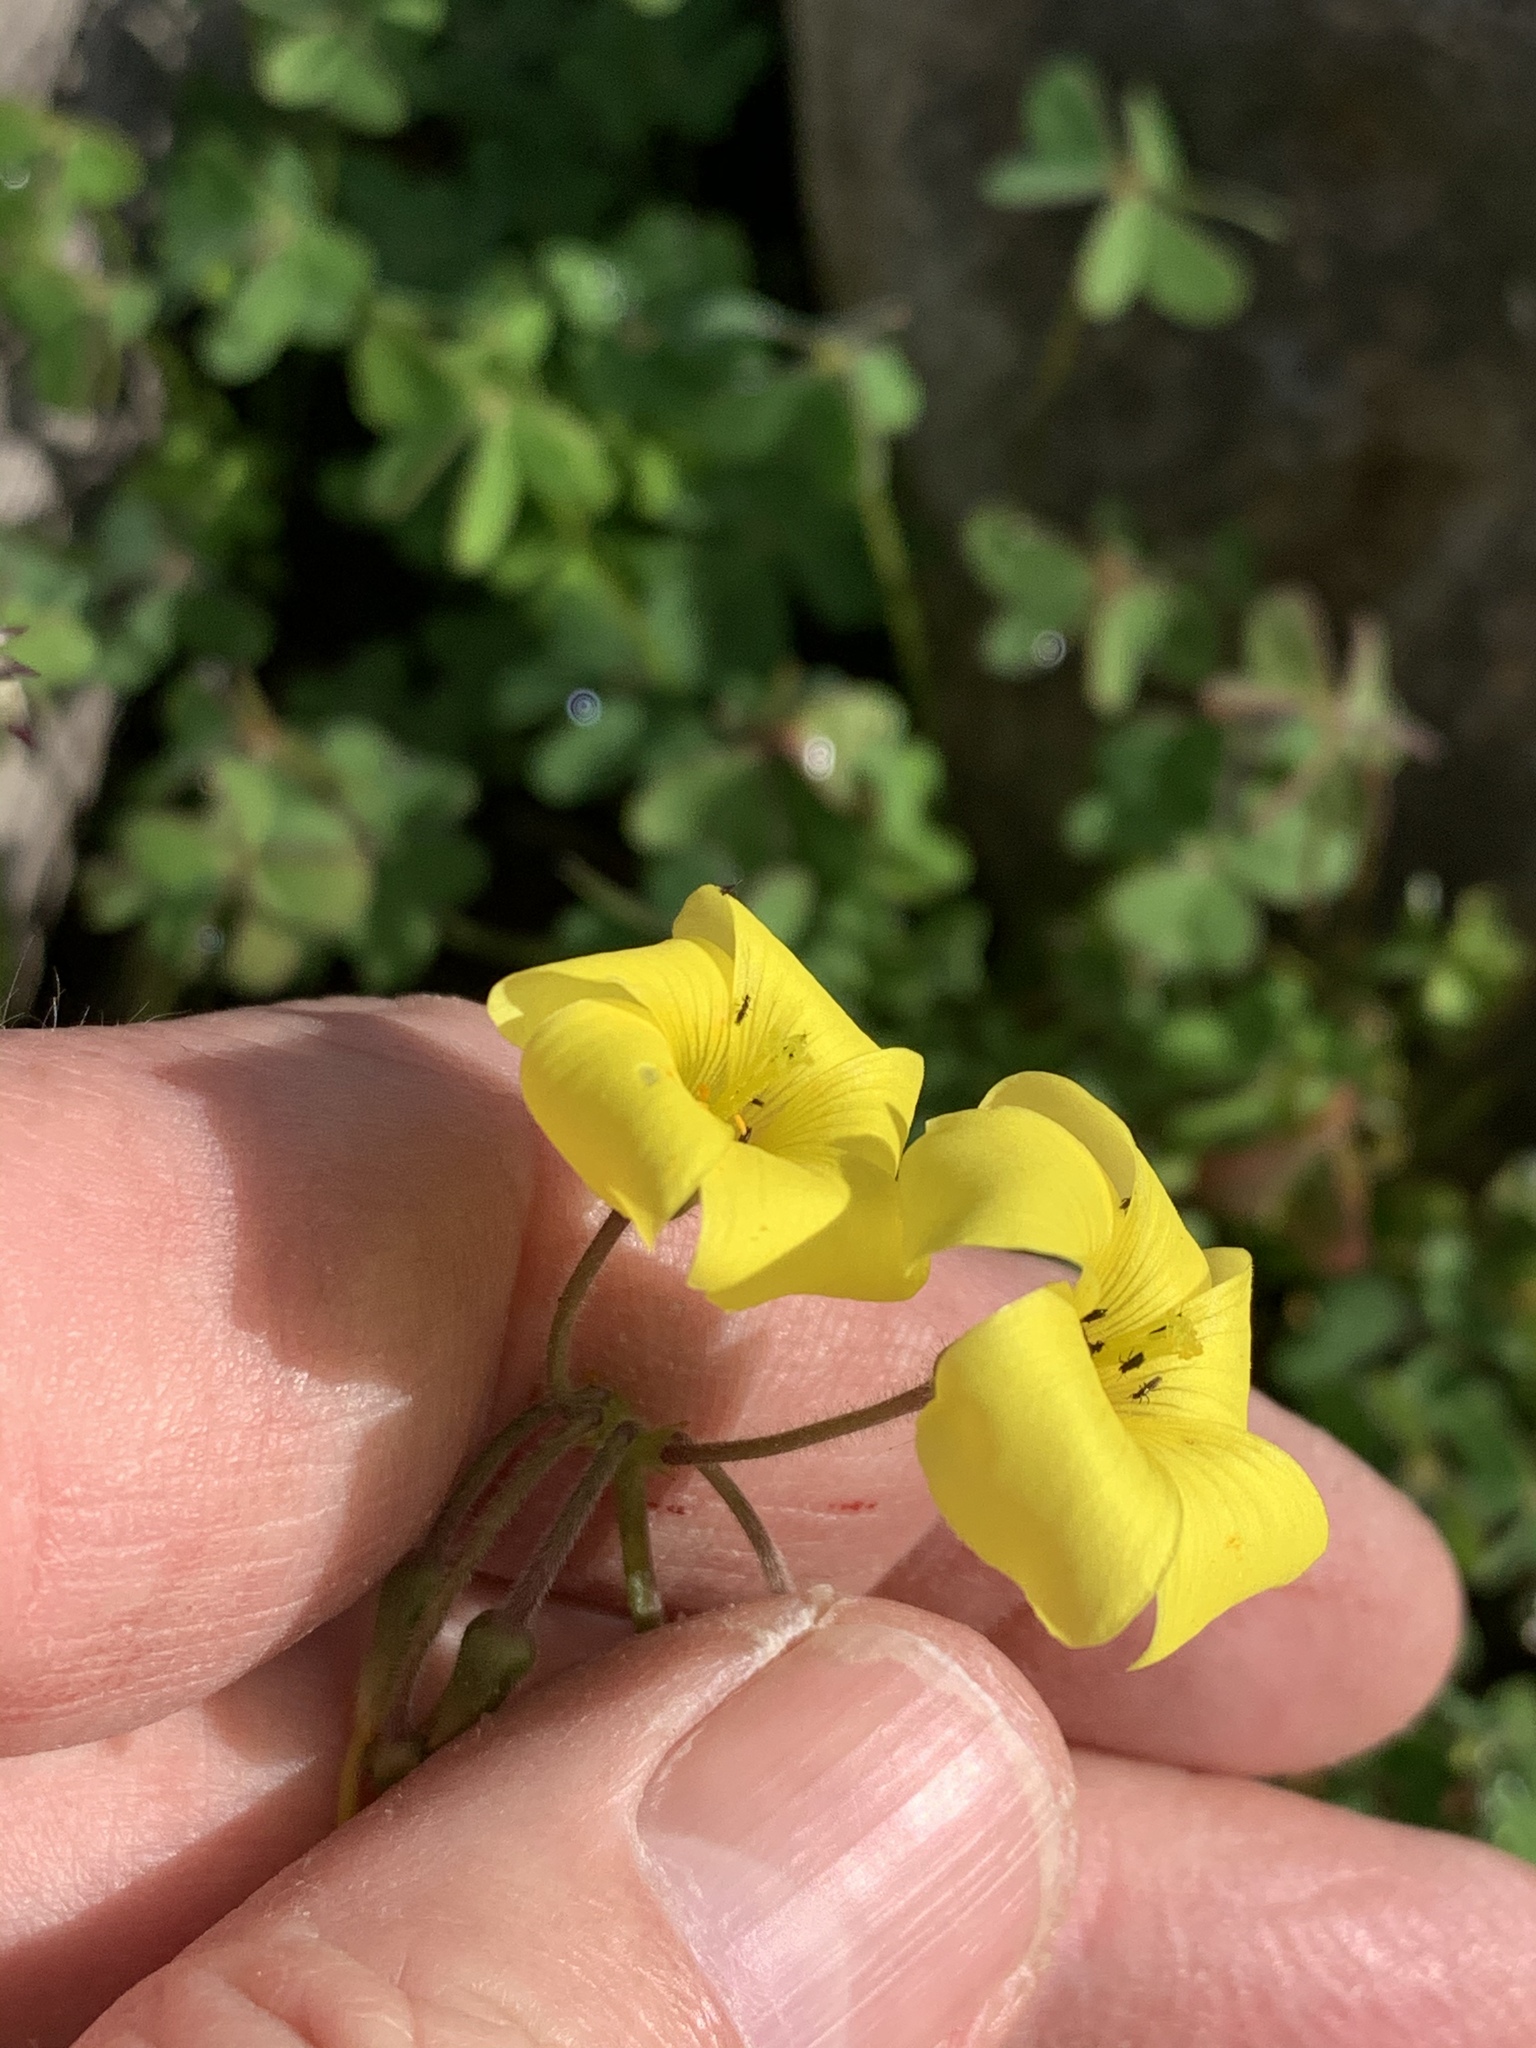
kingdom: Plantae
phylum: Tracheophyta
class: Magnoliopsida
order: Oxalidales
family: Oxalidaceae
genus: Oxalis
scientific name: Oxalis pes-caprae
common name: Bermuda-buttercup
